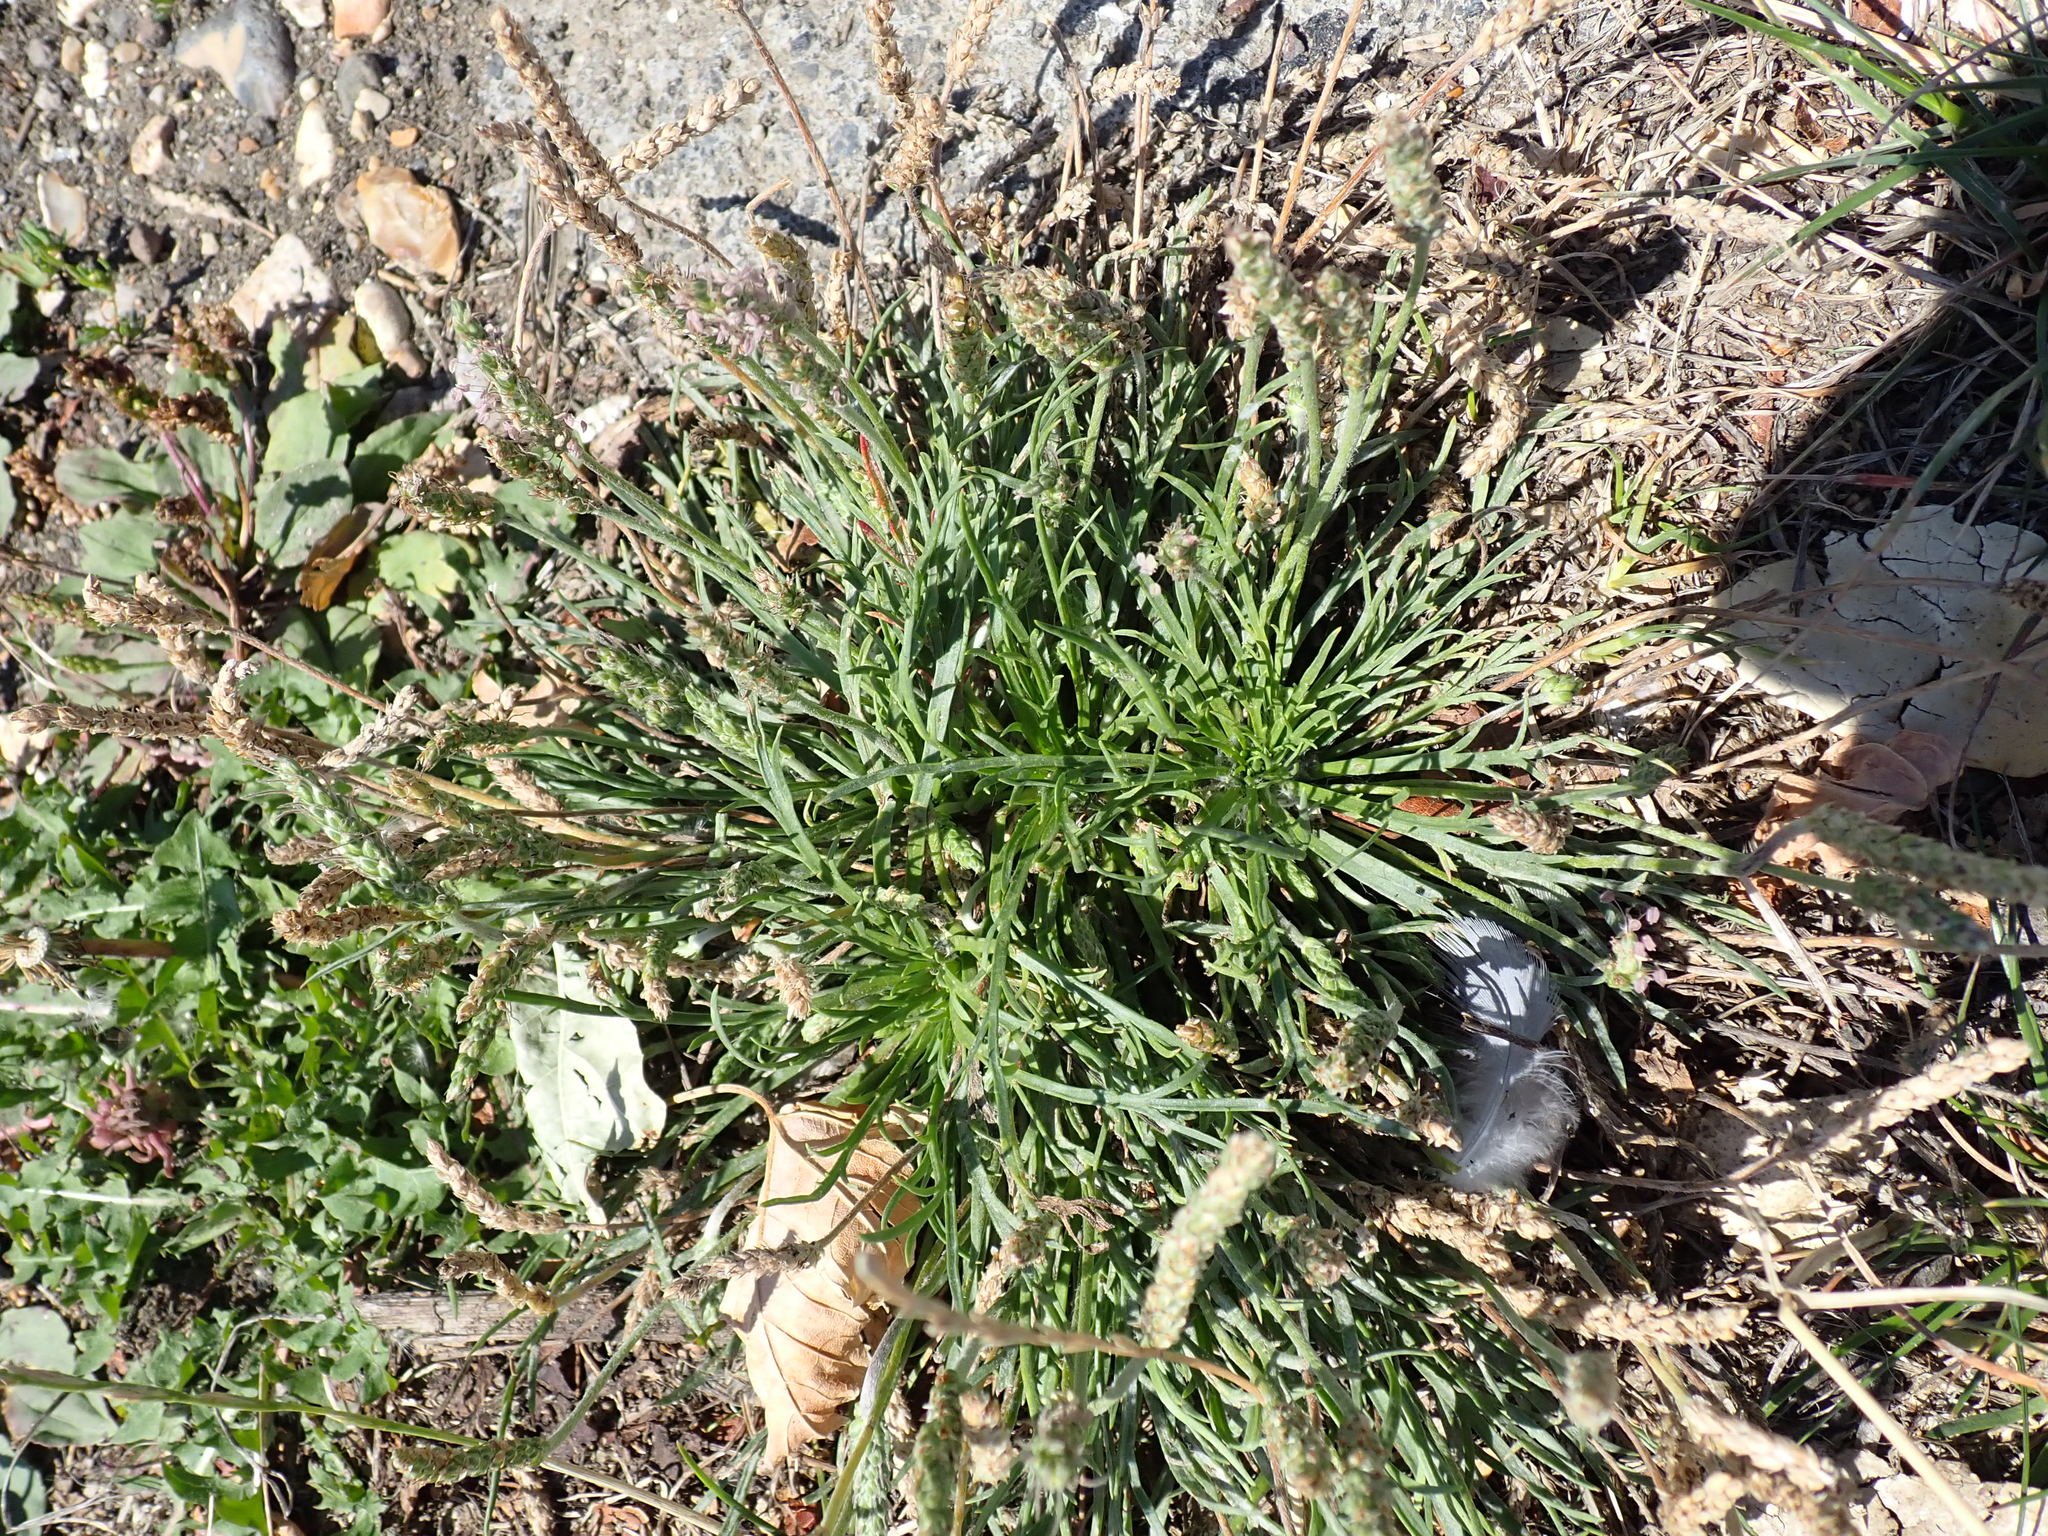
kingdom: Plantae
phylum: Tracheophyta
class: Magnoliopsida
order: Lamiales
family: Plantaginaceae
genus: Plantago
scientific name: Plantago coronopus
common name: Buck's-horn plantain
